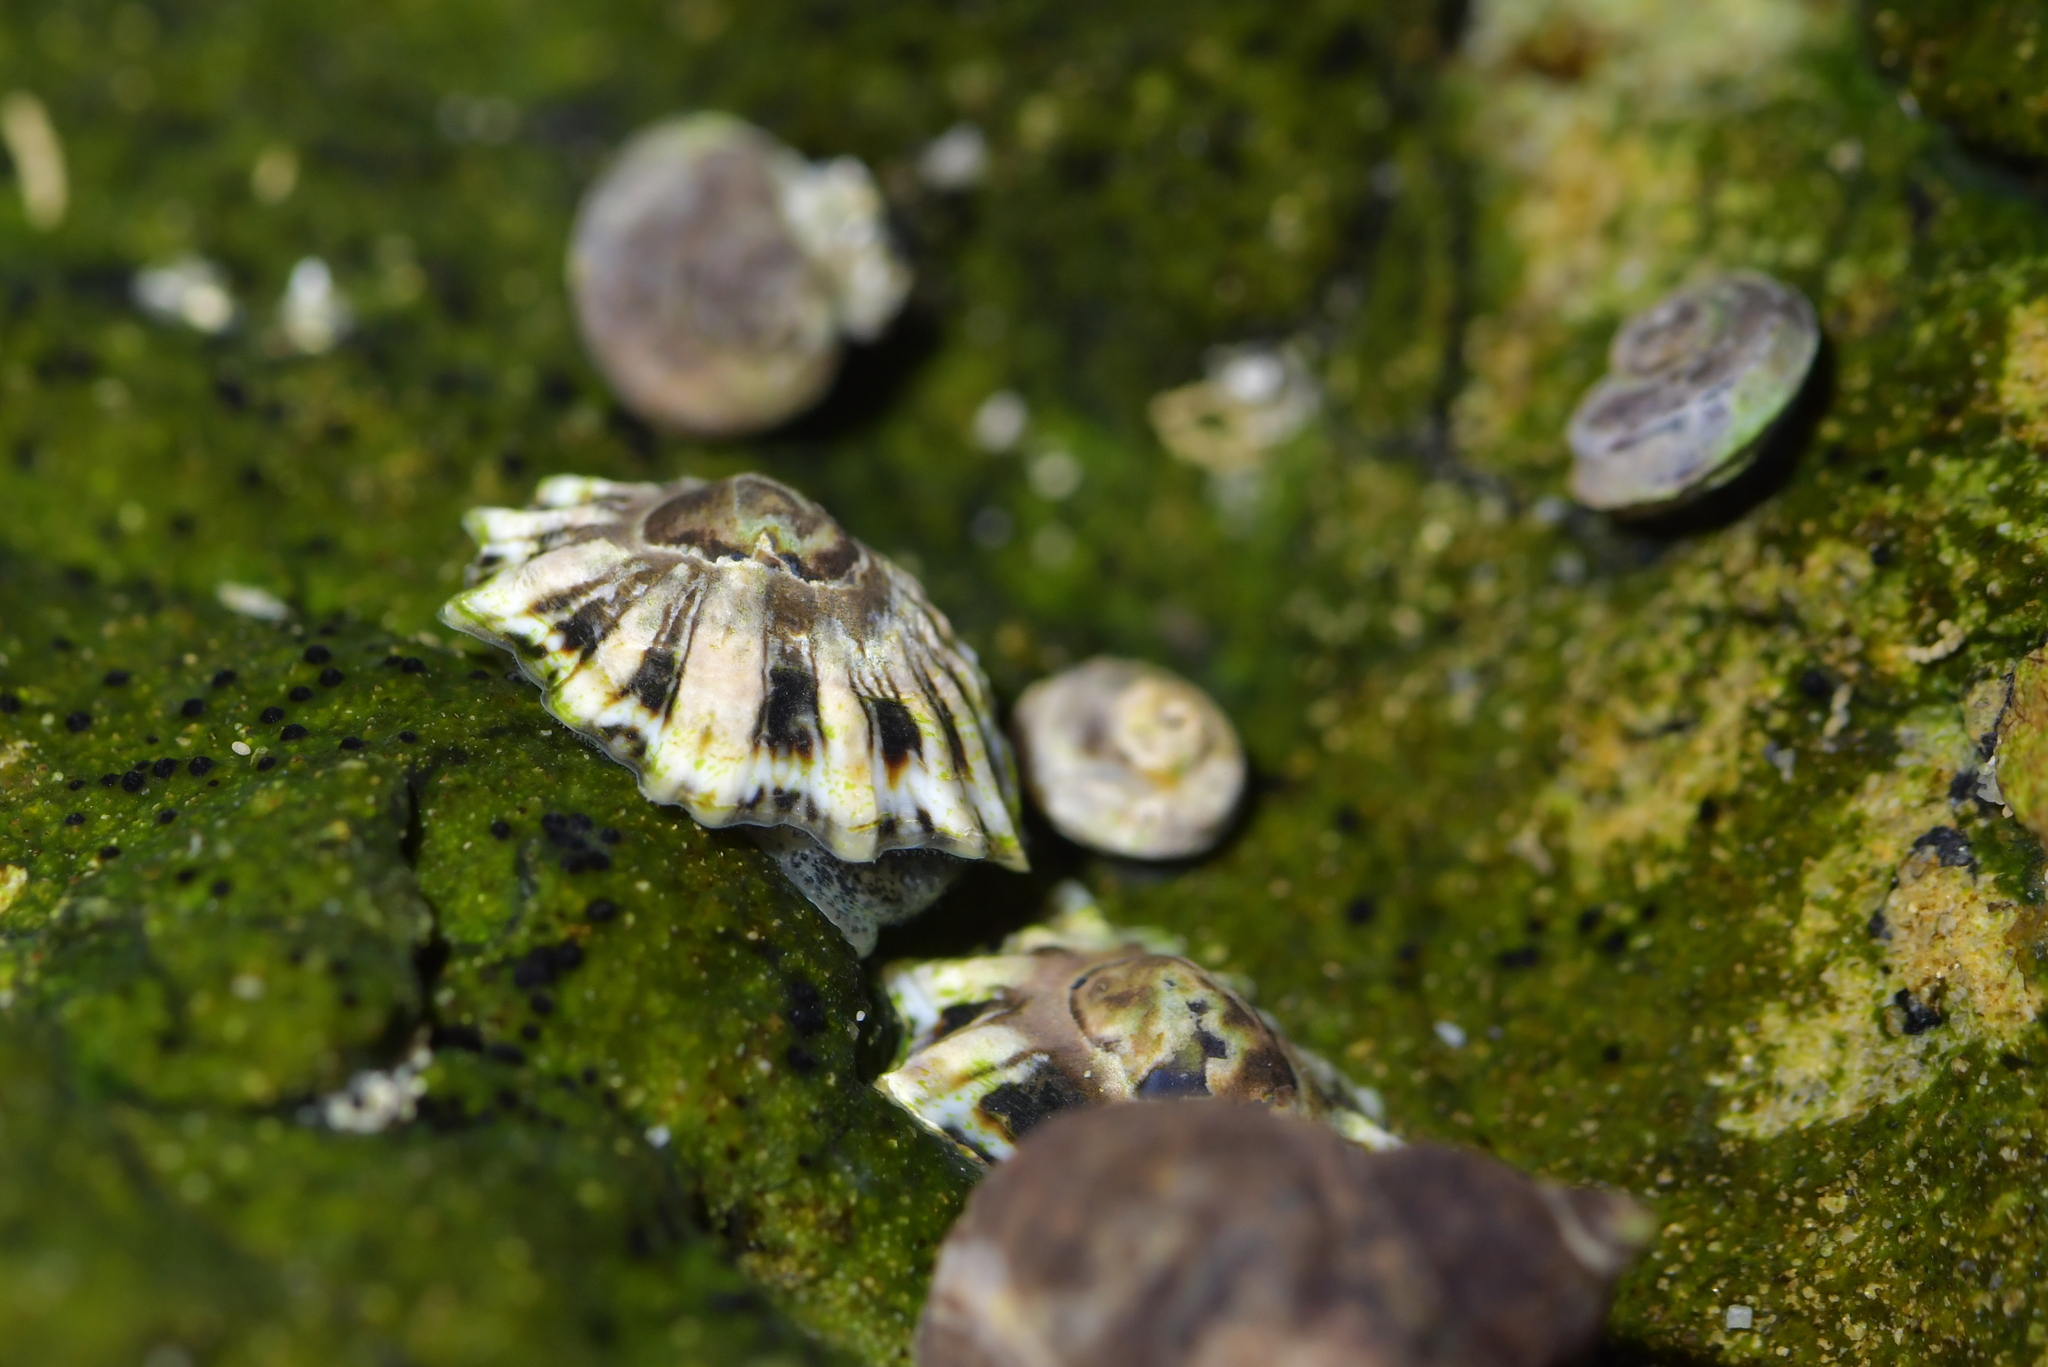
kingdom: Animalia
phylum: Mollusca
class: Gastropoda
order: Siphonariida
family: Siphonariidae
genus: Siphonaria
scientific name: Siphonaria australis
